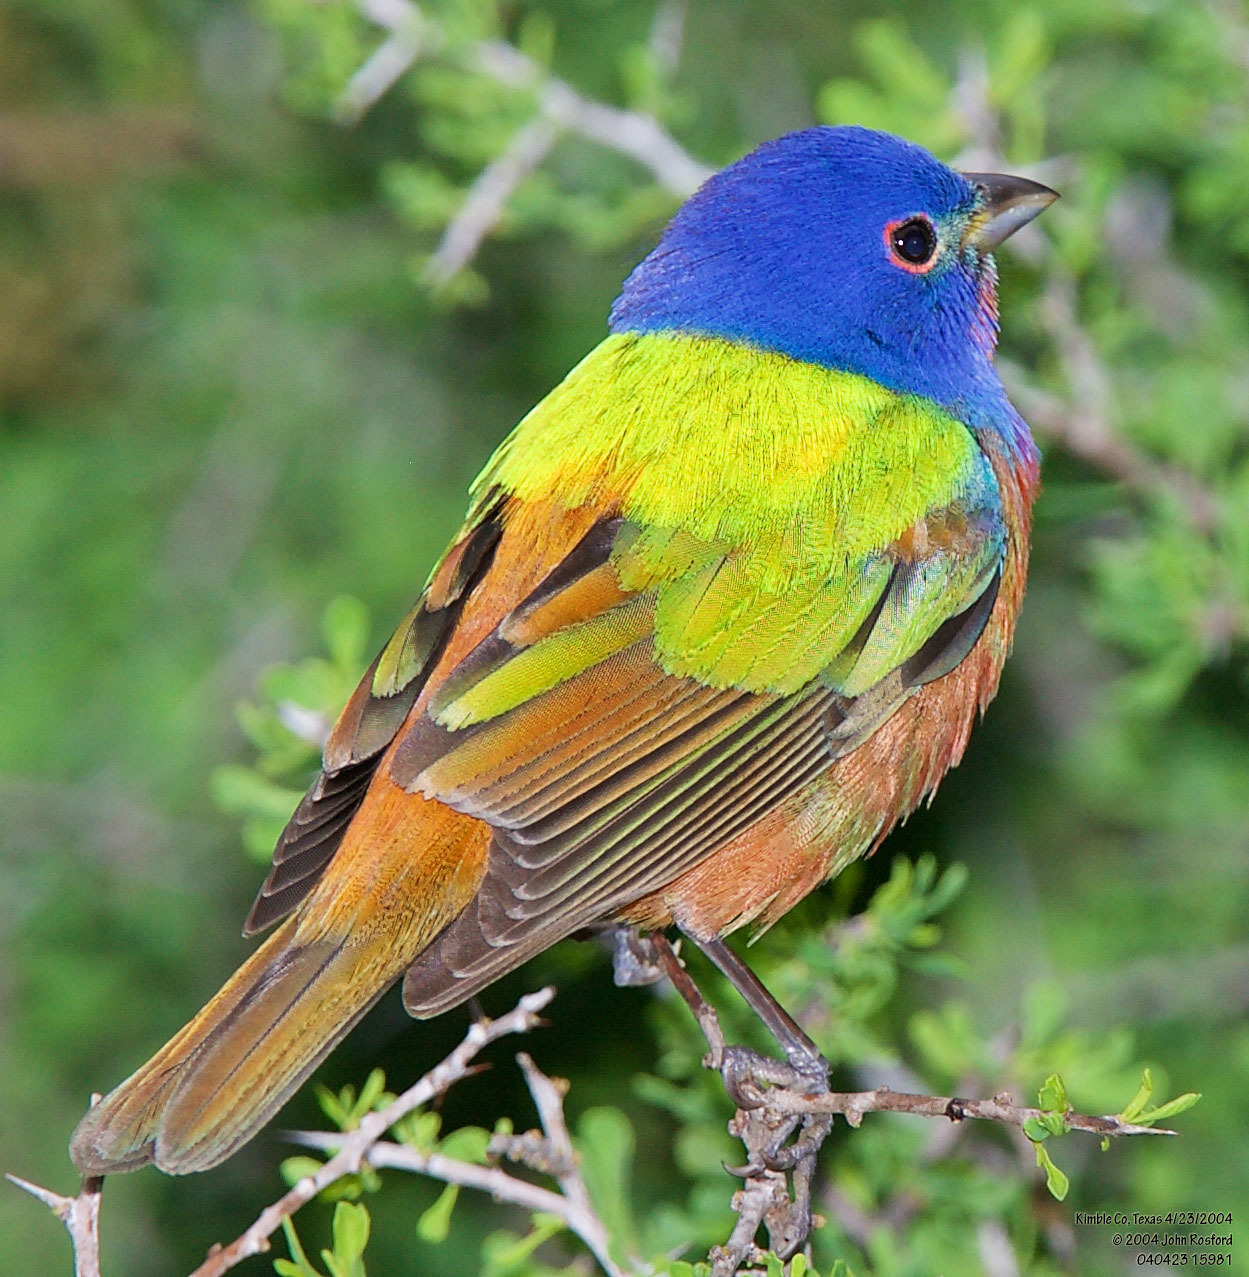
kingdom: Animalia
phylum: Chordata
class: Aves
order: Passeriformes
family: Cardinalidae
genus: Passerina
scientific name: Passerina ciris
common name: Painted bunting
